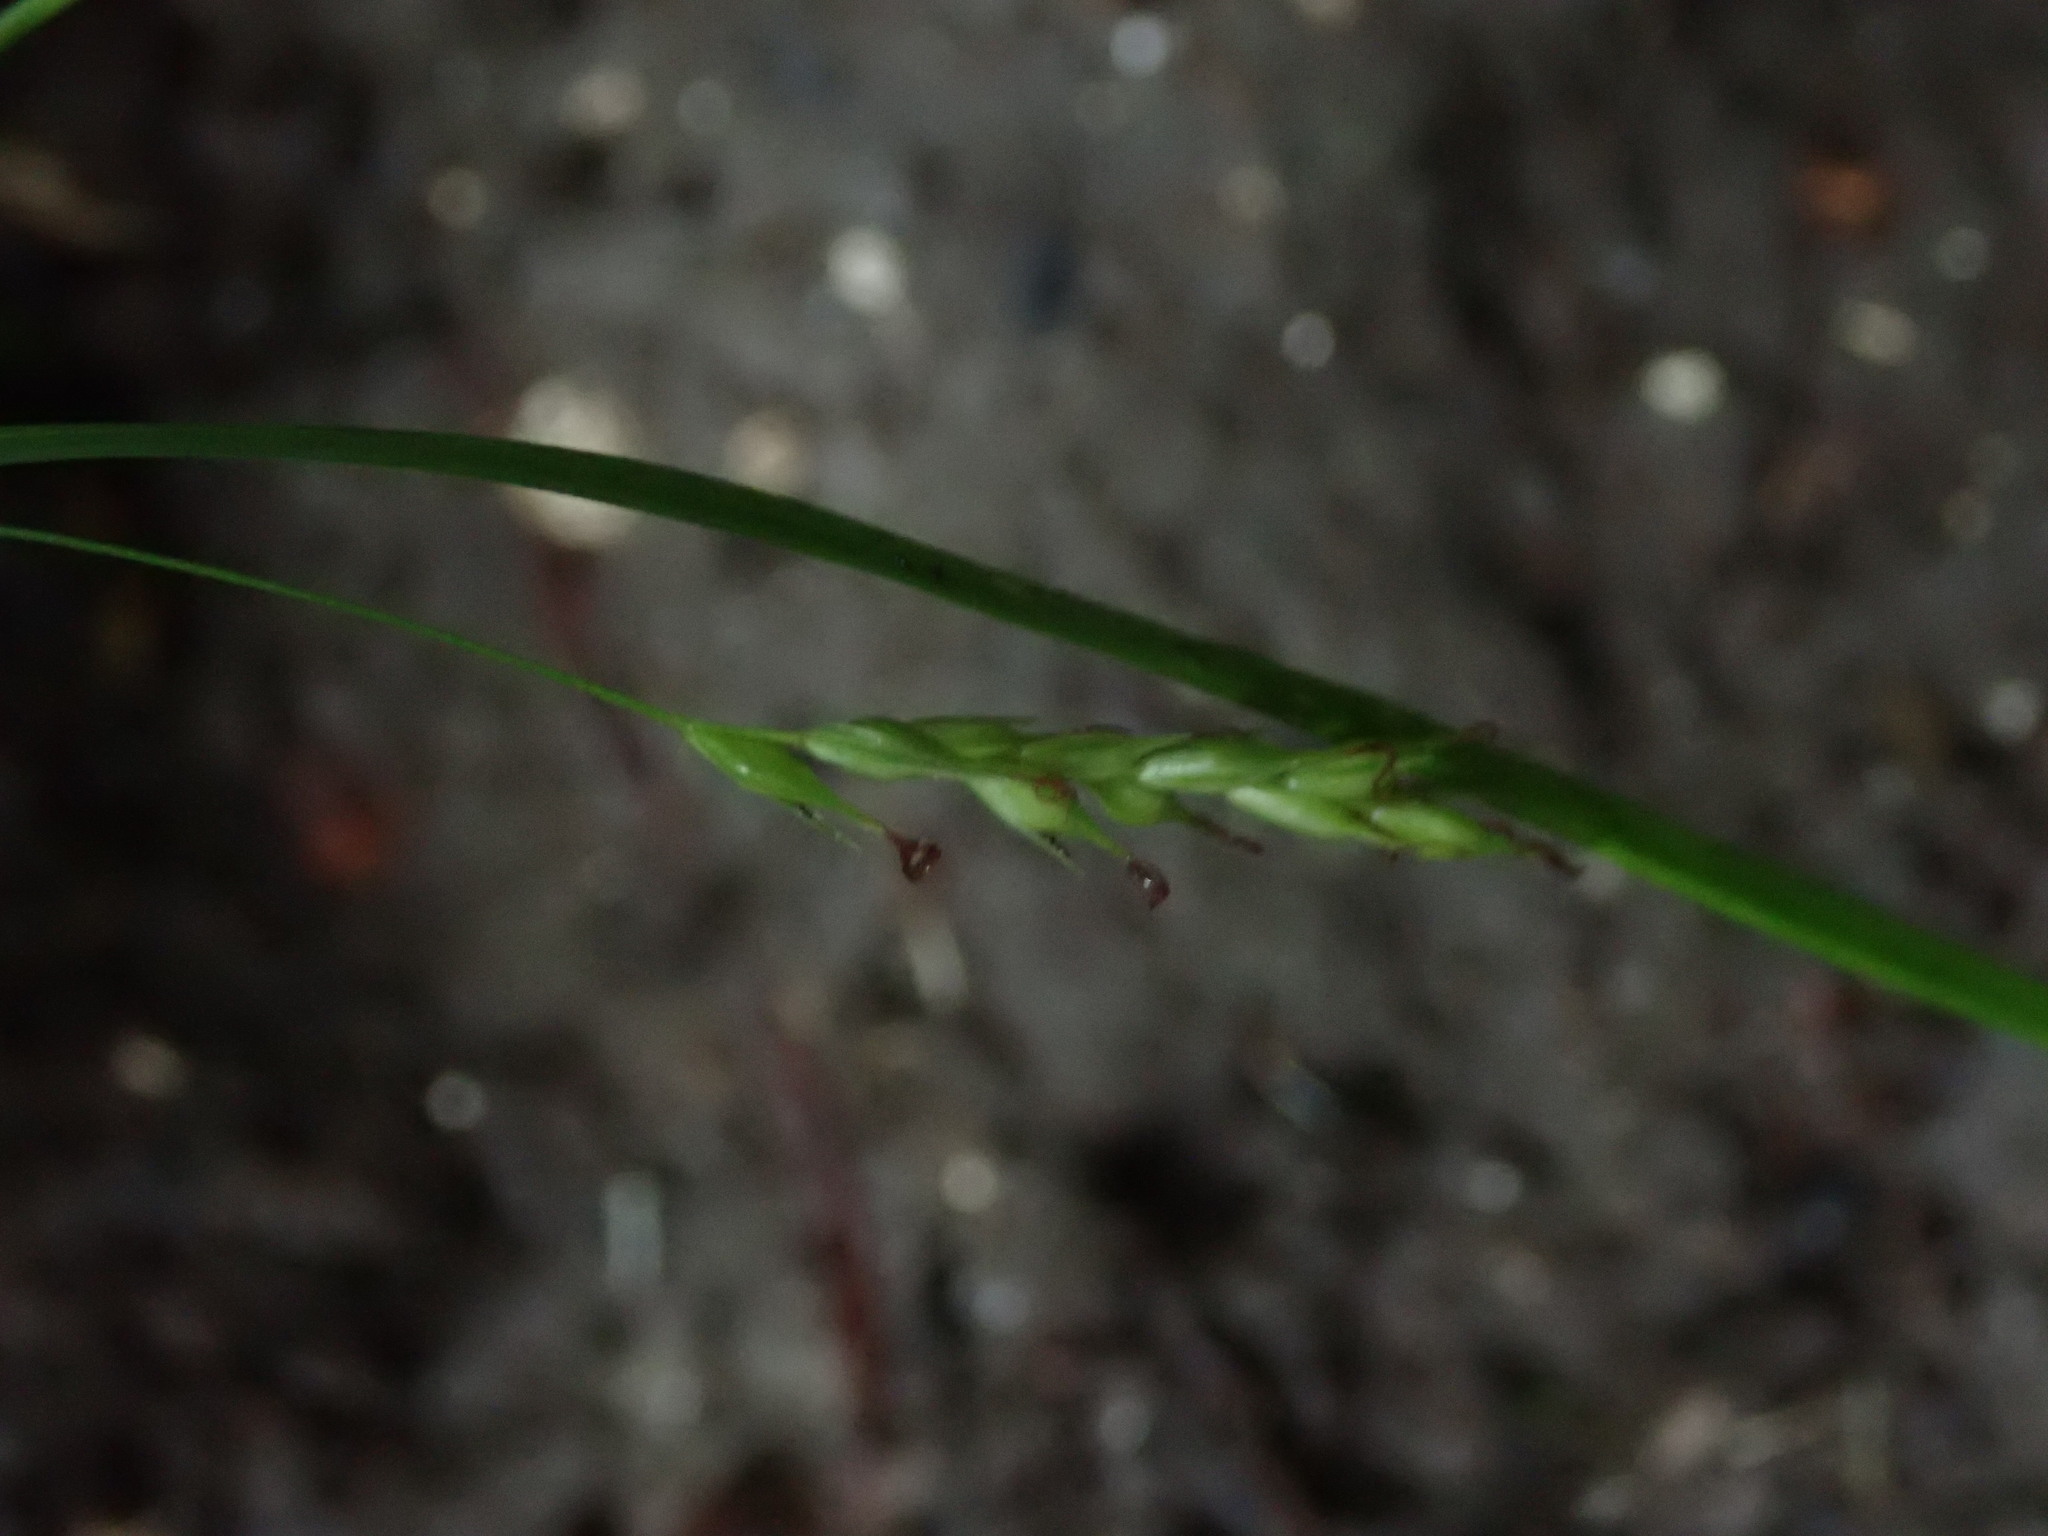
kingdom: Plantae
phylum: Tracheophyta
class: Liliopsida
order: Poales
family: Cyperaceae
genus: Carex
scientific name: Carex sylvatica
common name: Wood-sedge
